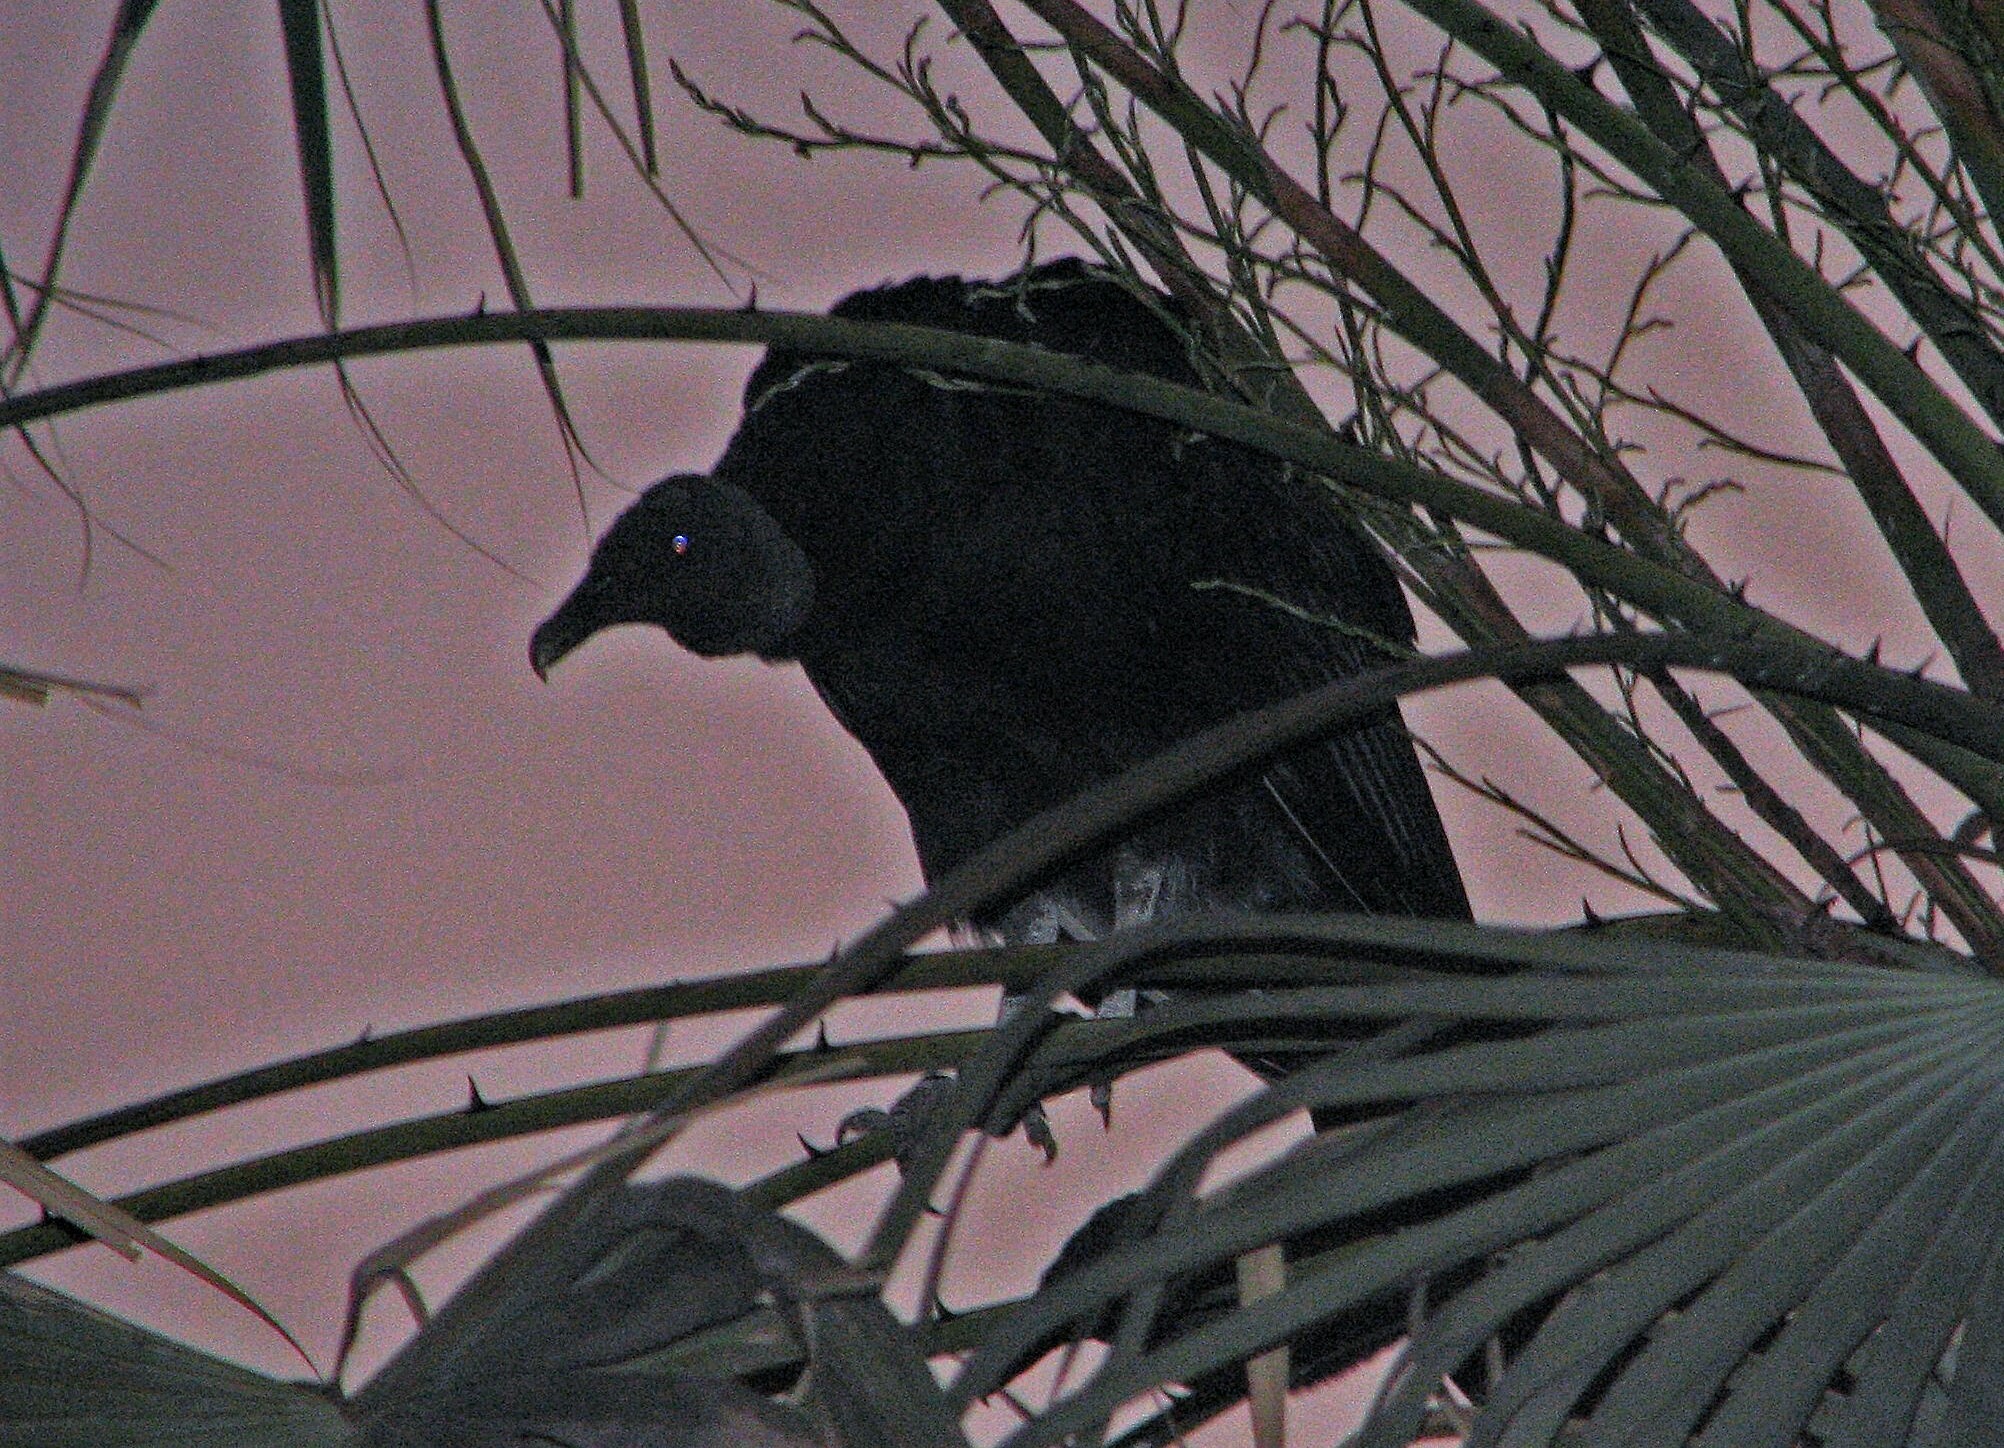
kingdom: Animalia
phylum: Chordata
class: Aves
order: Accipitriformes
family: Cathartidae
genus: Coragyps
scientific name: Coragyps atratus
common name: Black vulture
